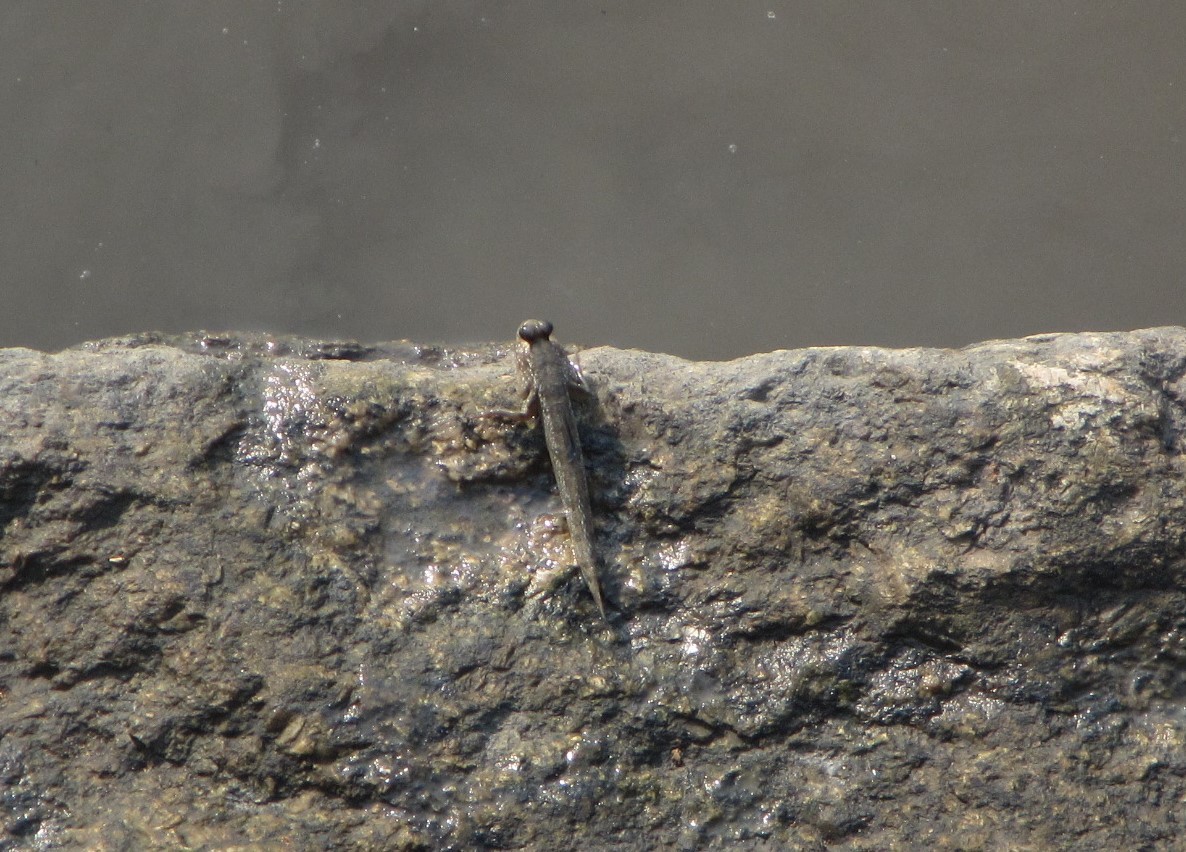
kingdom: Animalia
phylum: Chordata
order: Perciformes
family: Gobiidae
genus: Periophthalmus
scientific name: Periophthalmus barbarus
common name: Atlantic mudskipper
